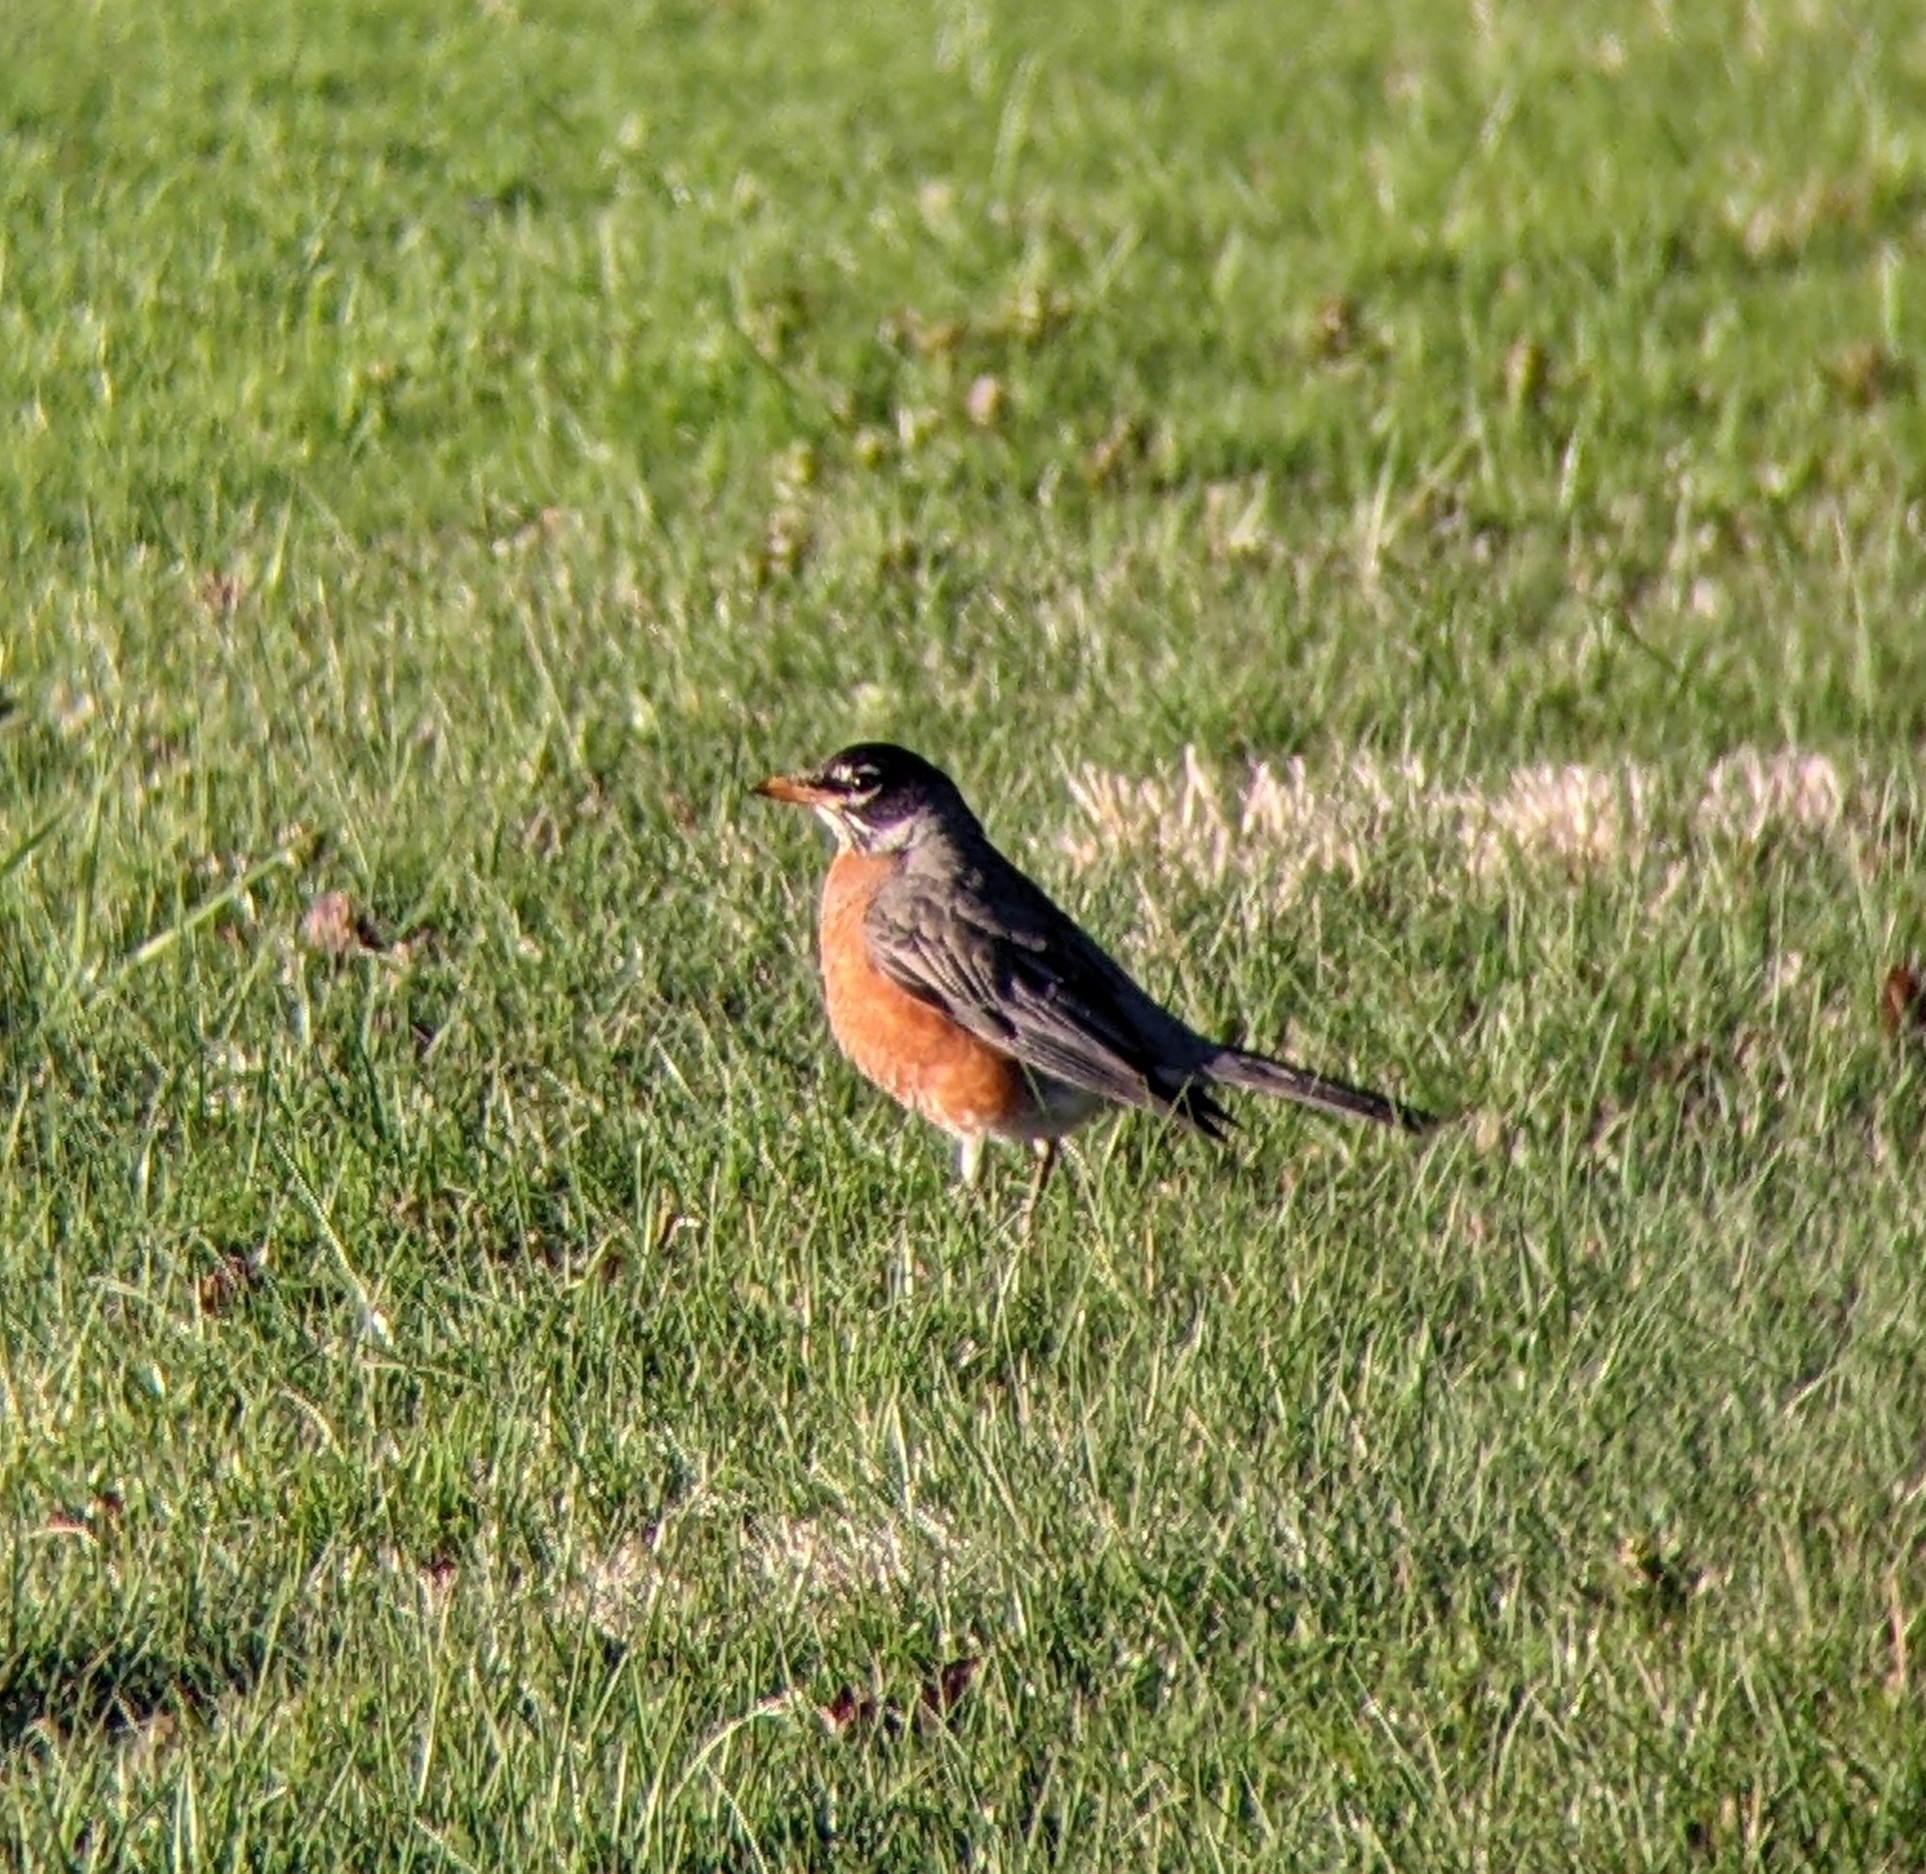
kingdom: Animalia
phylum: Chordata
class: Aves
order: Passeriformes
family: Turdidae
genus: Turdus
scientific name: Turdus migratorius
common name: American robin
